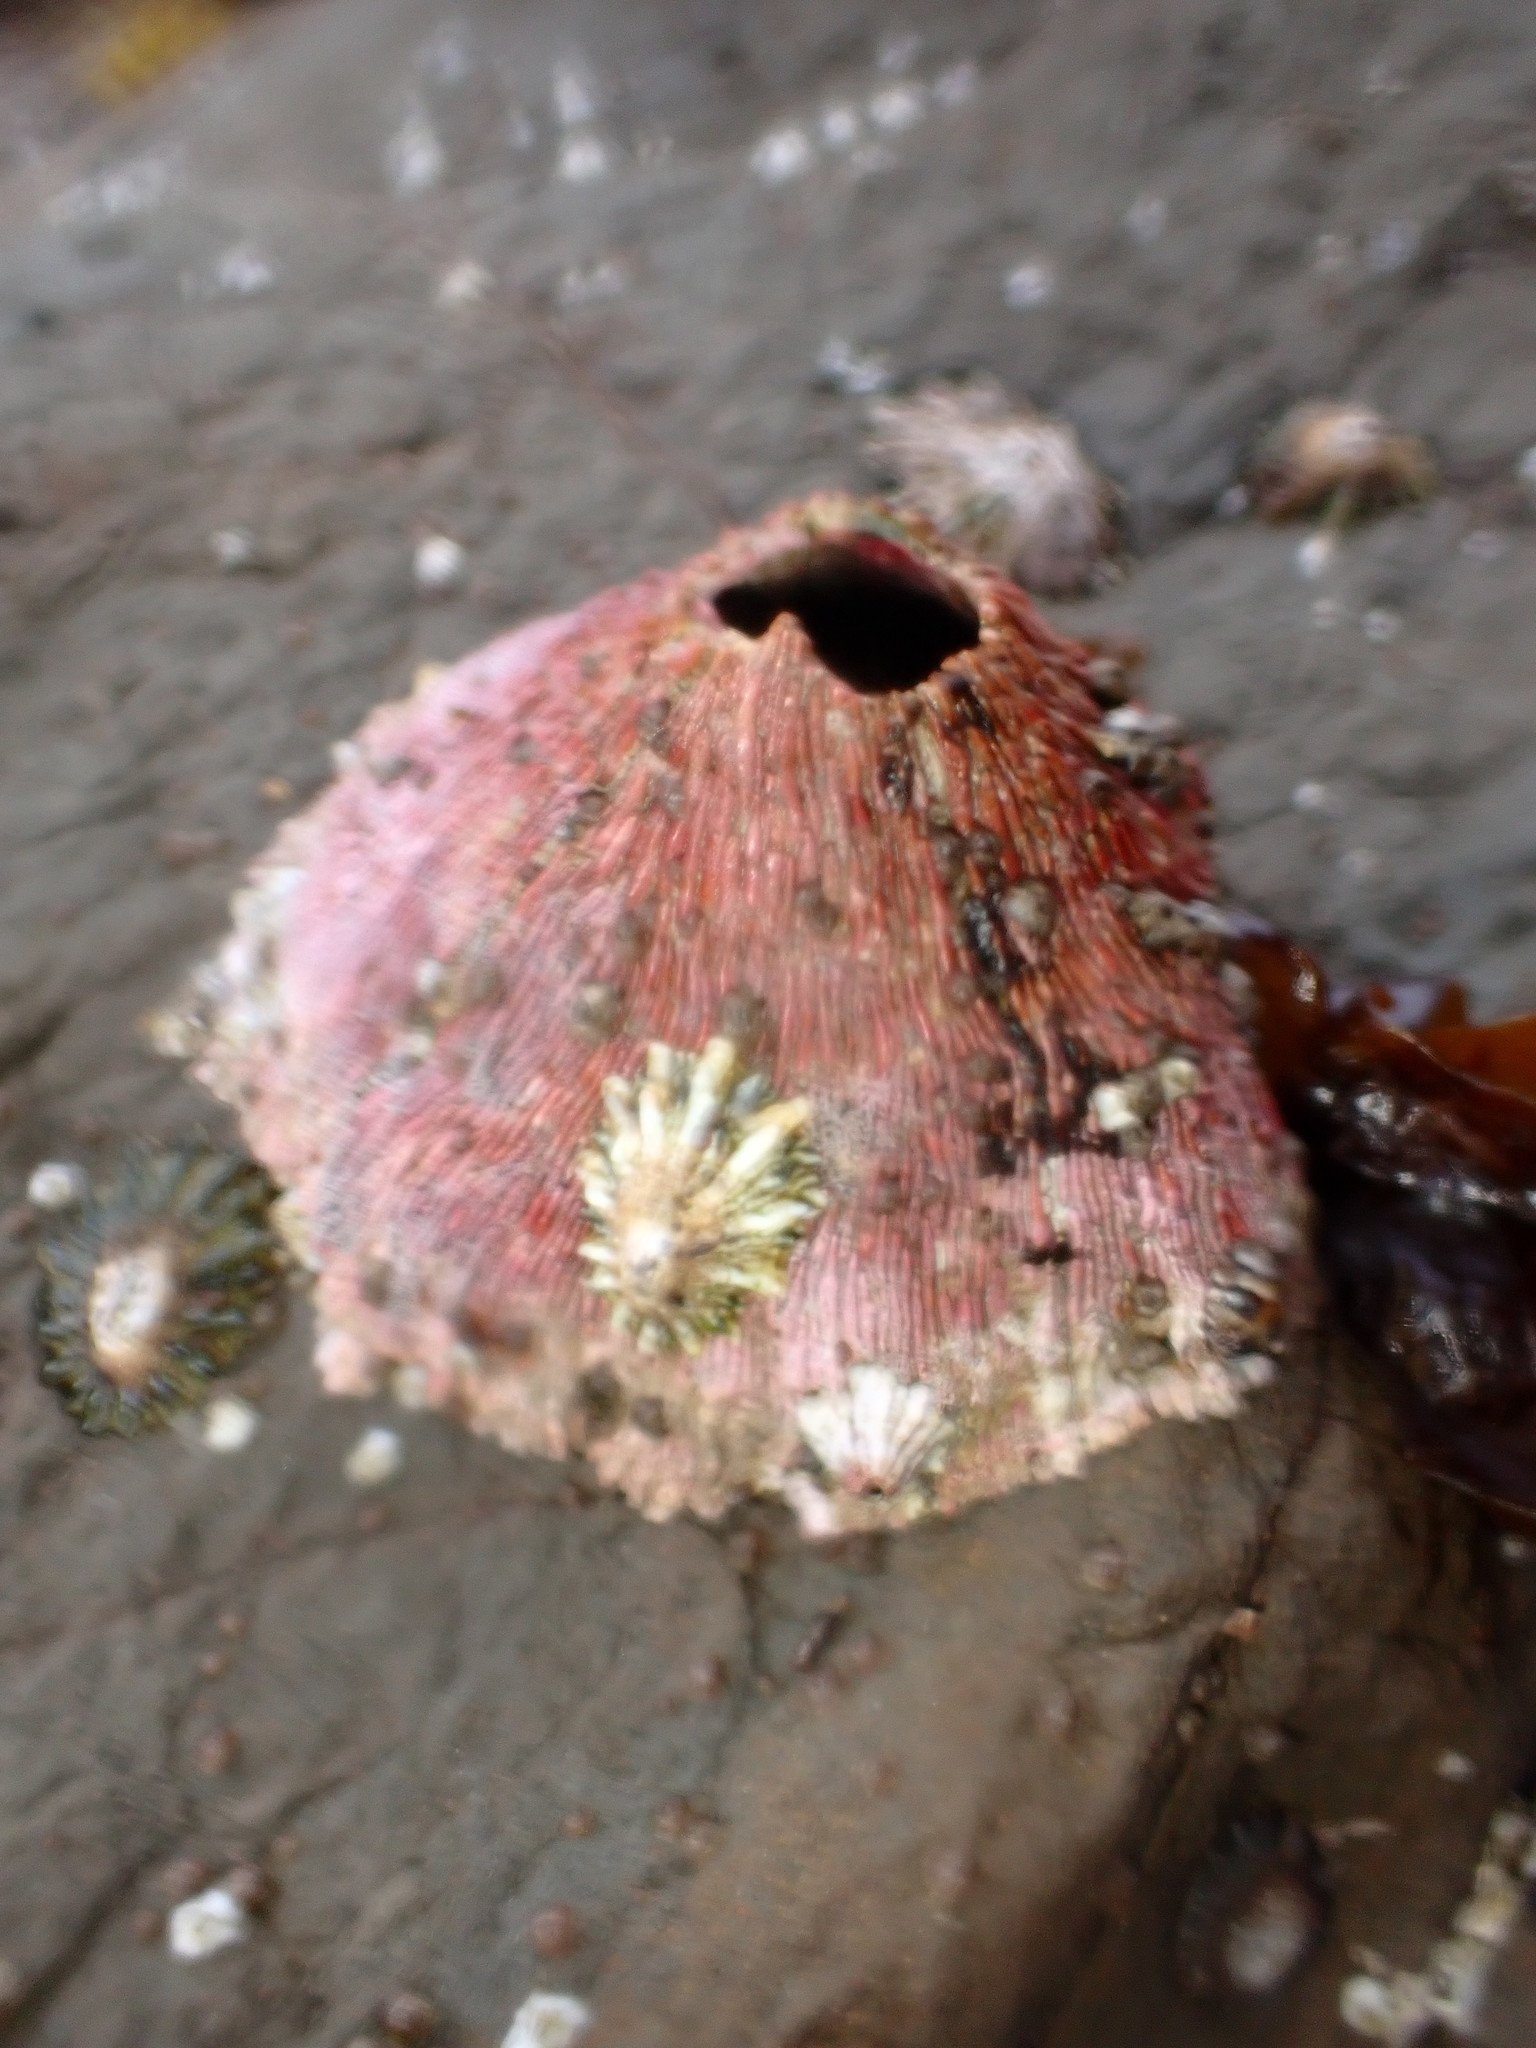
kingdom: Animalia
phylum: Arthropoda
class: Maxillopoda
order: Sessilia
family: Tetraclitidae
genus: Tetraclita
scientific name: Tetraclita rubescens
